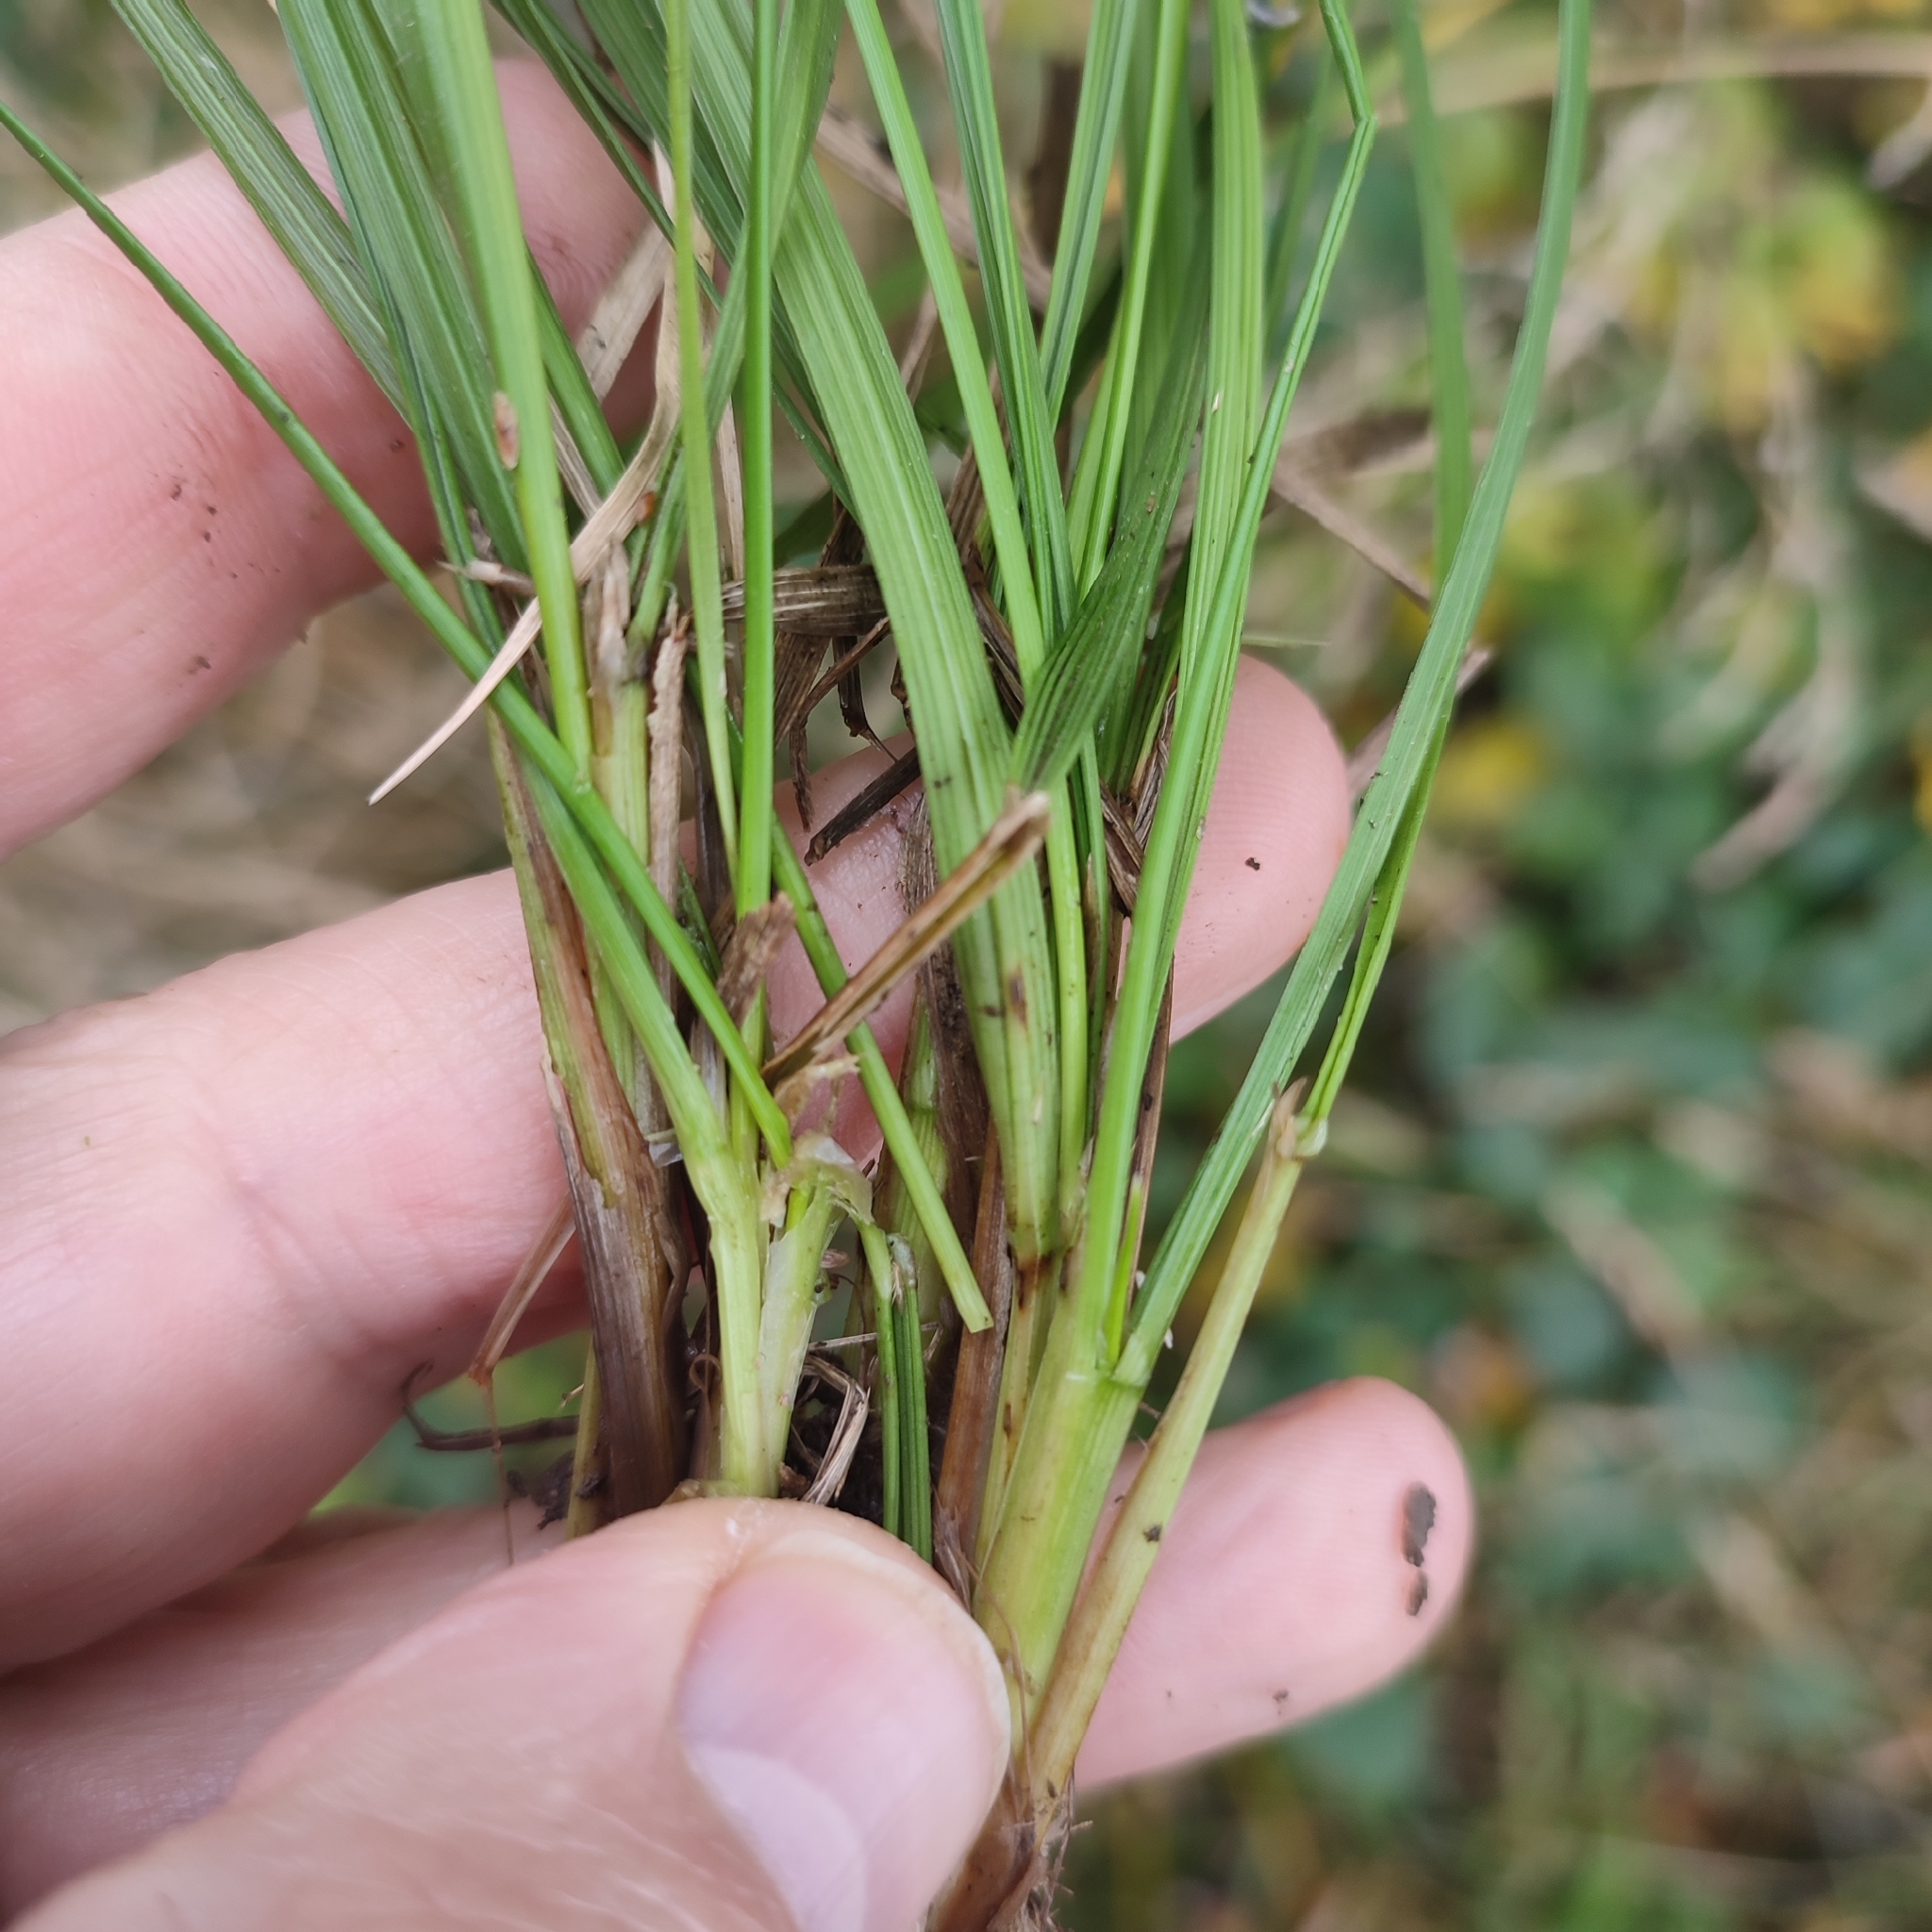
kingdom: Plantae
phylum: Tracheophyta
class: Liliopsida
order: Poales
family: Poaceae
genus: Deschampsia
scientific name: Deschampsia cespitosa
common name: Tufted hair-grass
